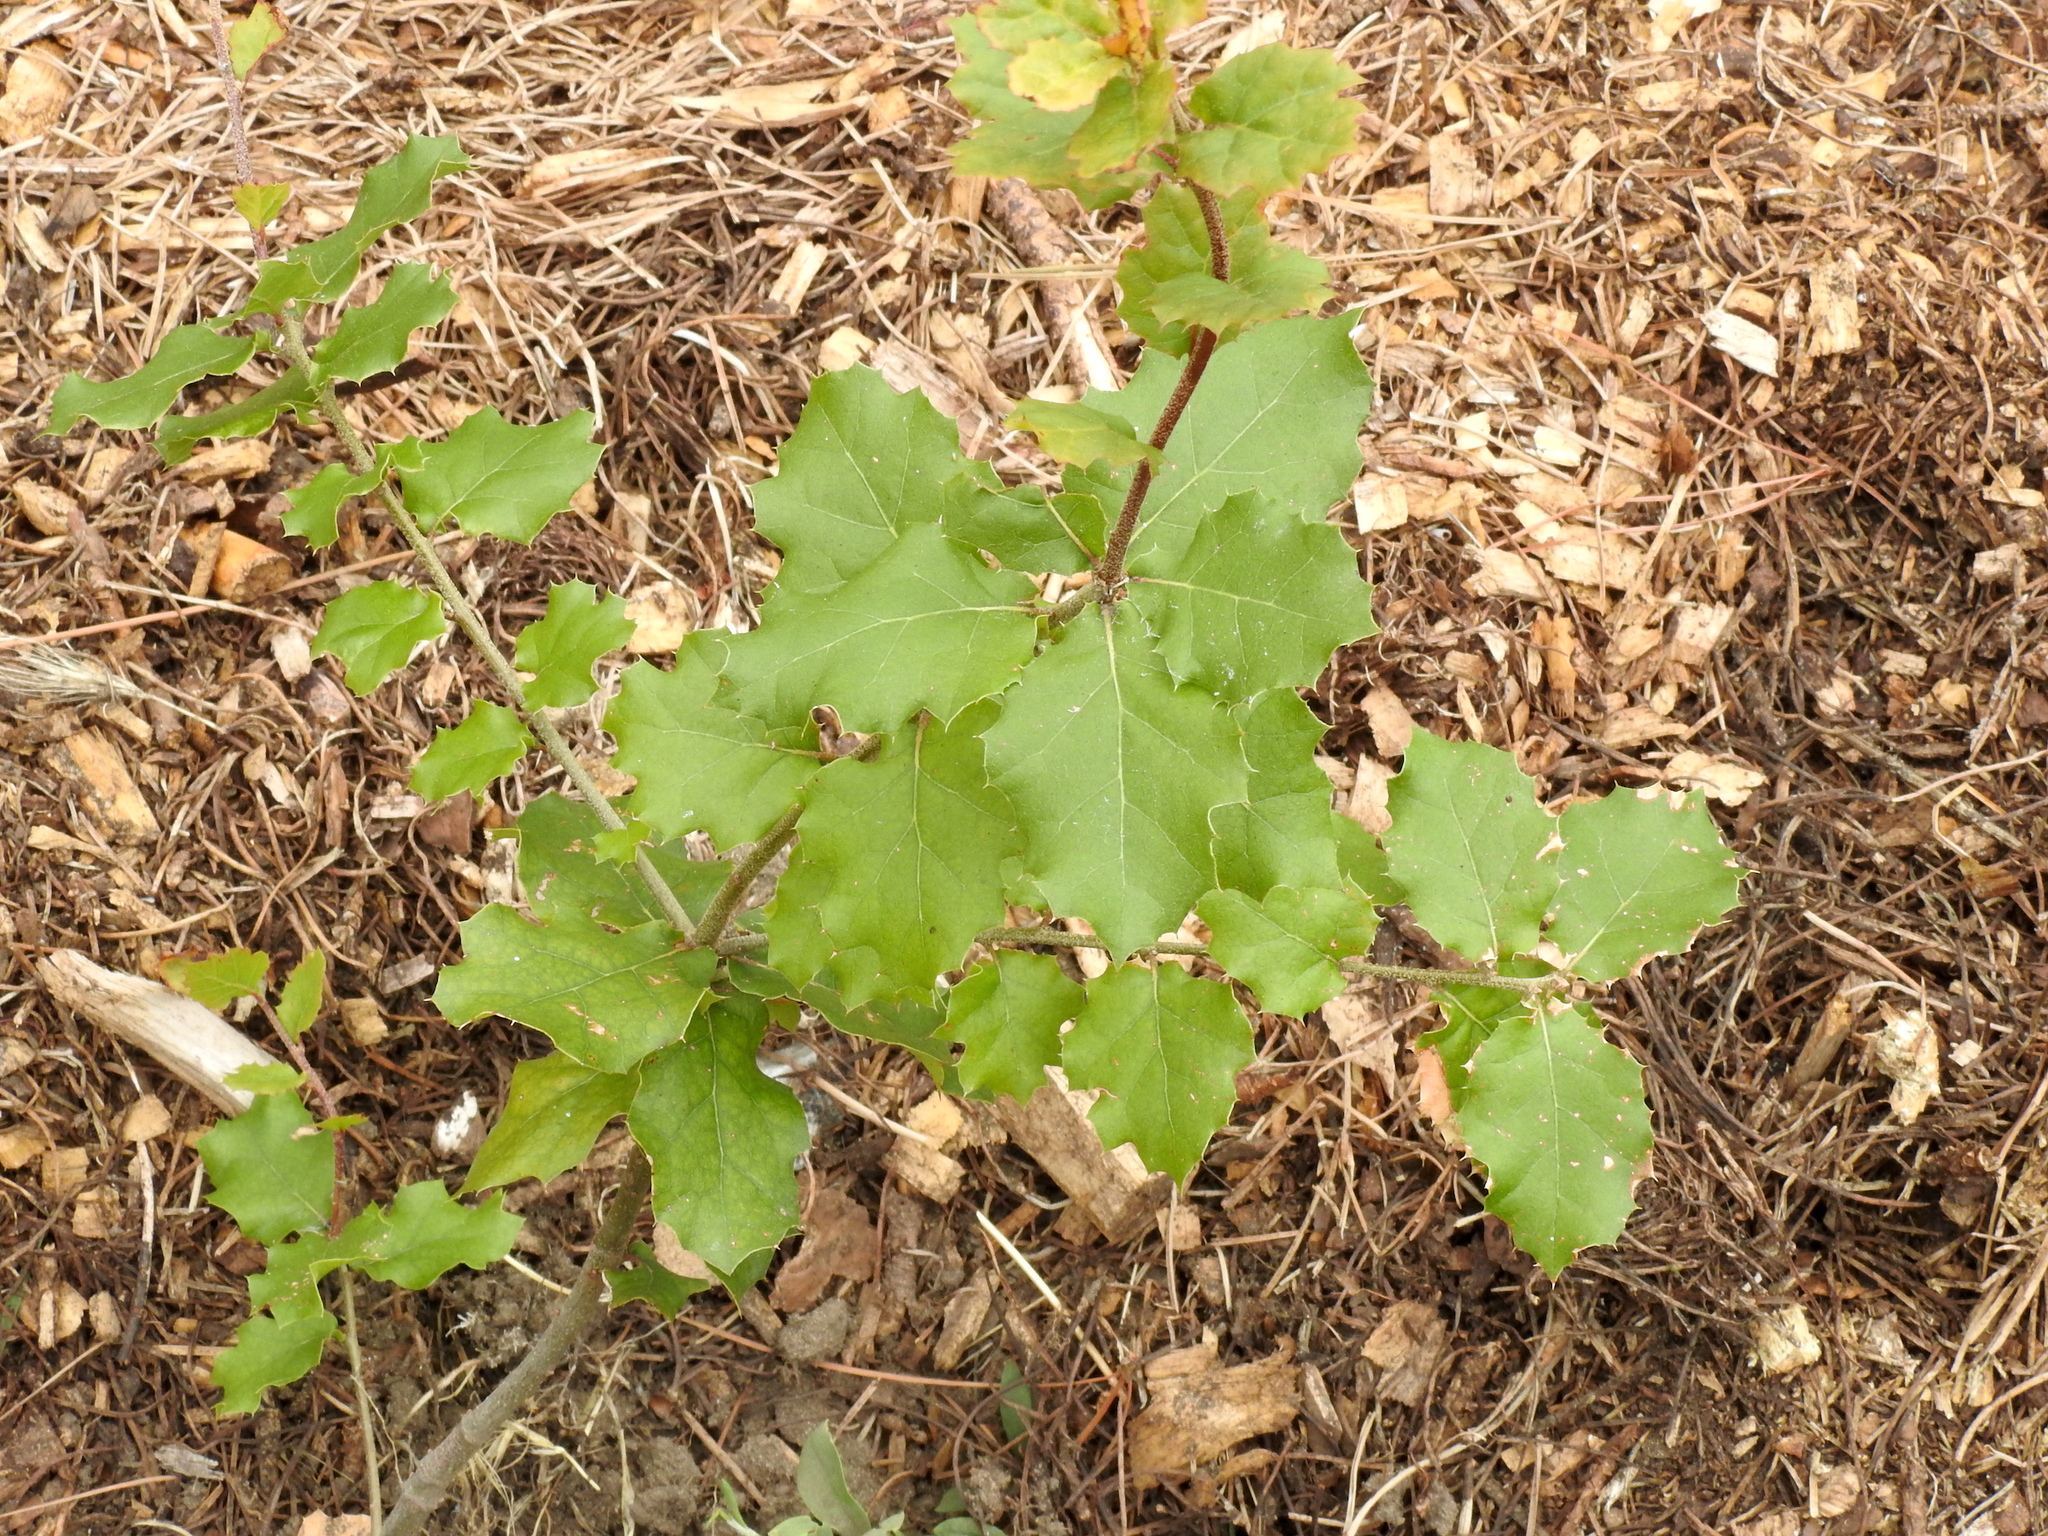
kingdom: Plantae
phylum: Tracheophyta
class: Magnoliopsida
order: Fagales
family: Fagaceae
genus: Quercus
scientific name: Quercus agrifolia
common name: California live oak
